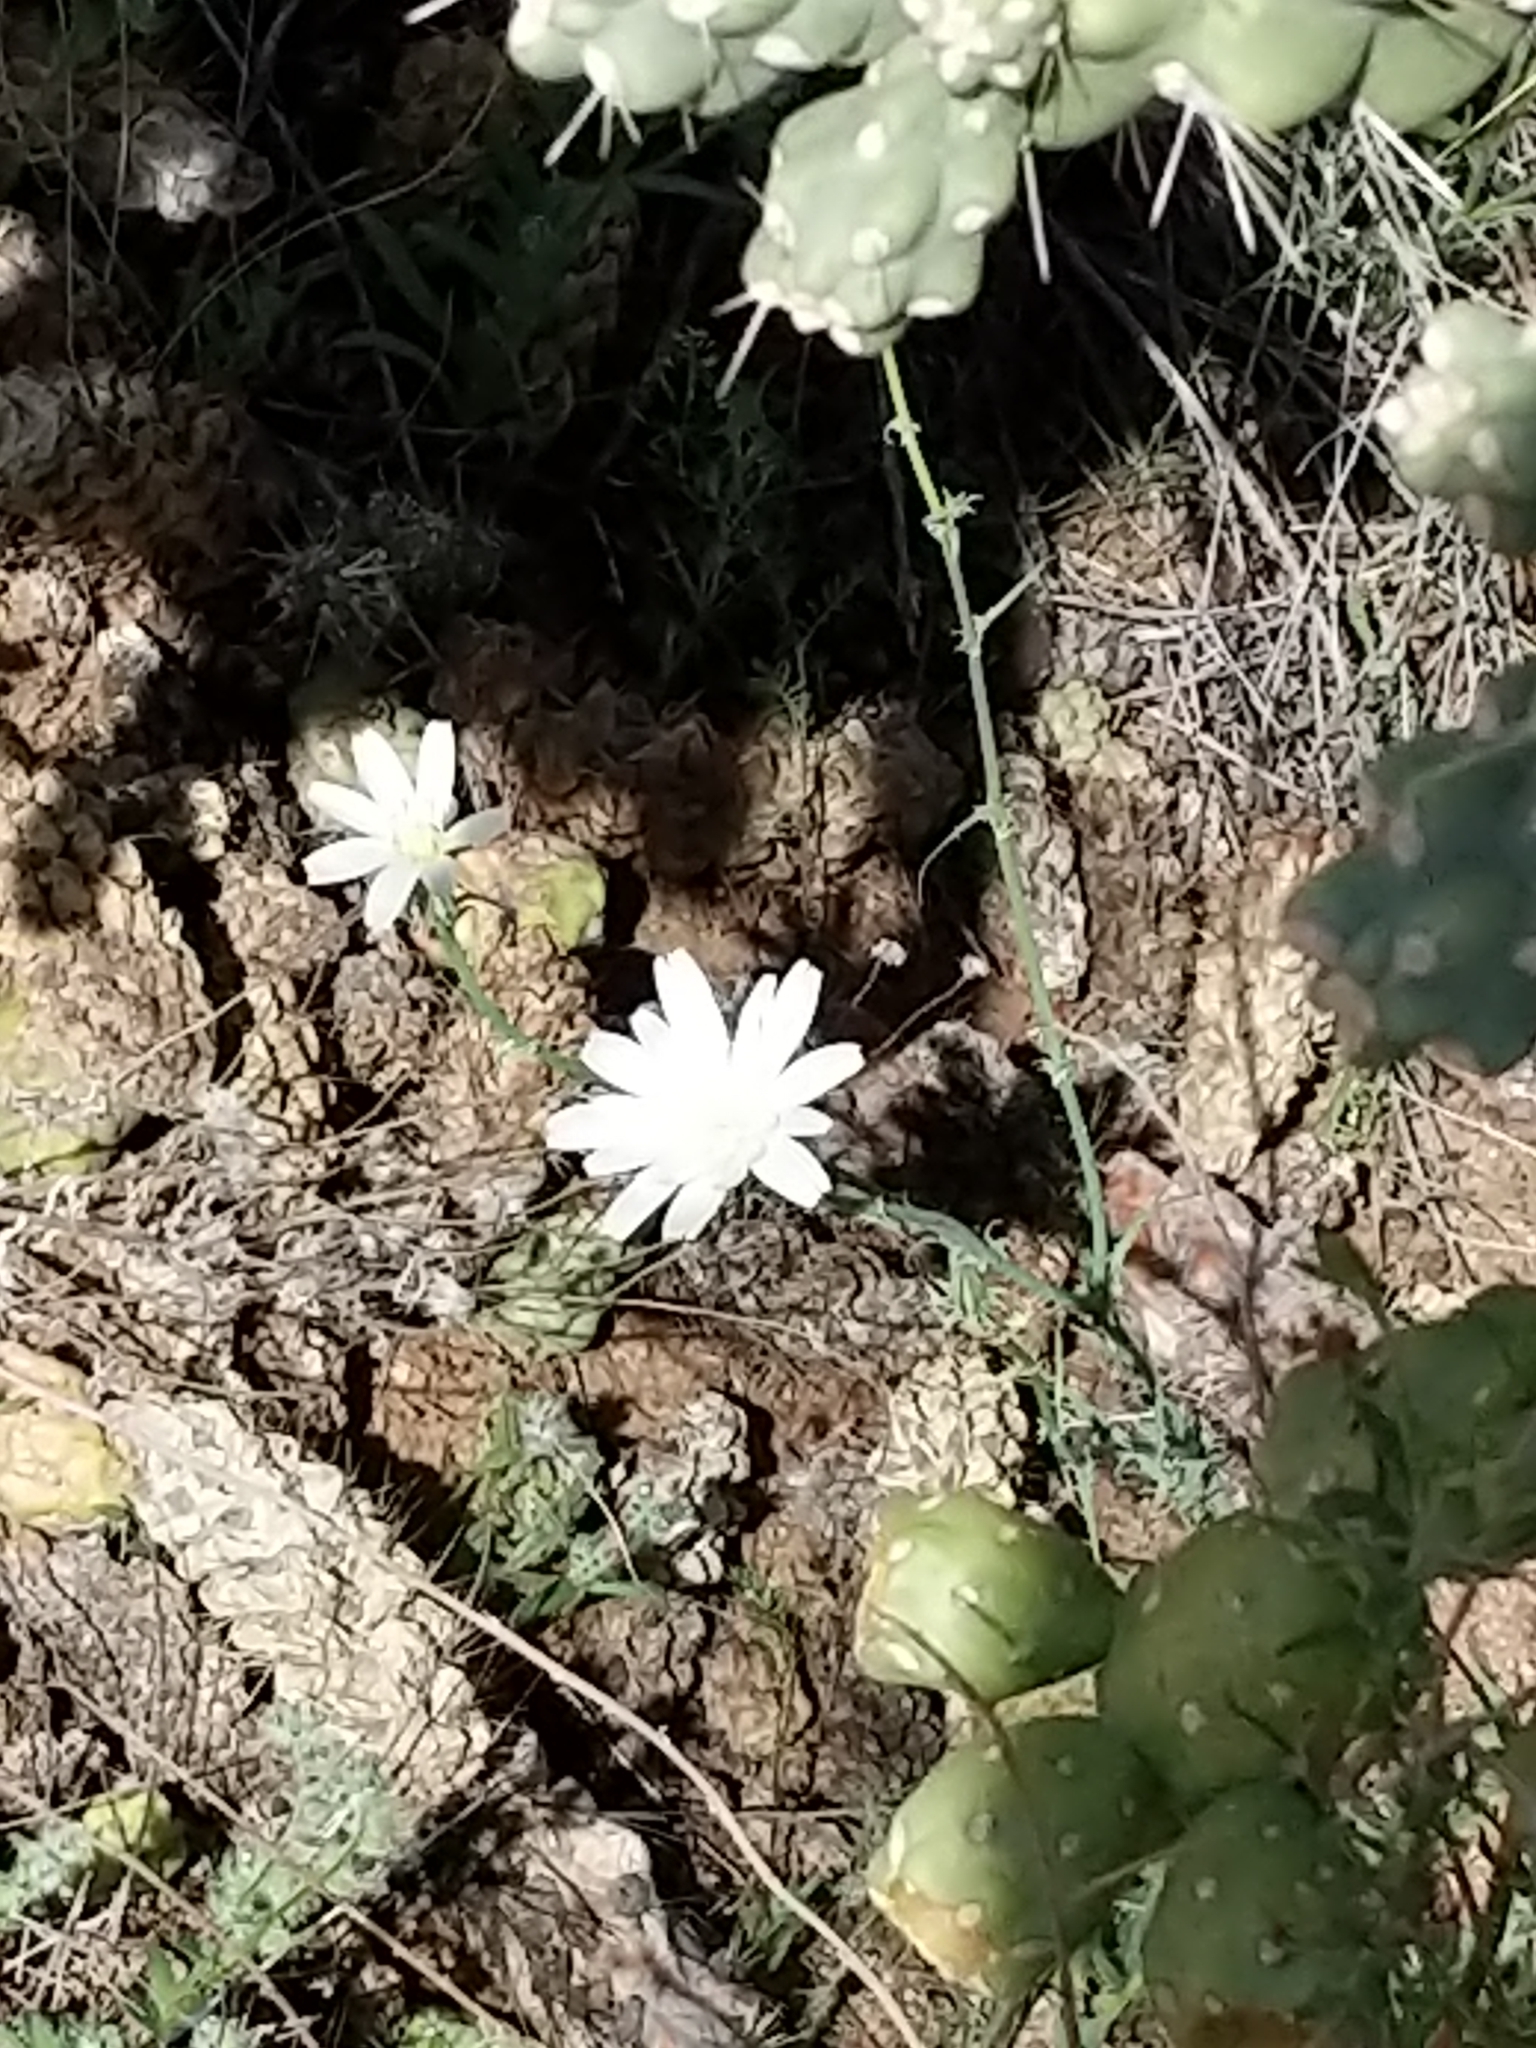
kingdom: Plantae
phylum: Tracheophyta
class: Magnoliopsida
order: Asterales
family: Asteraceae
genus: Rafinesquia
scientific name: Rafinesquia neomexicana
